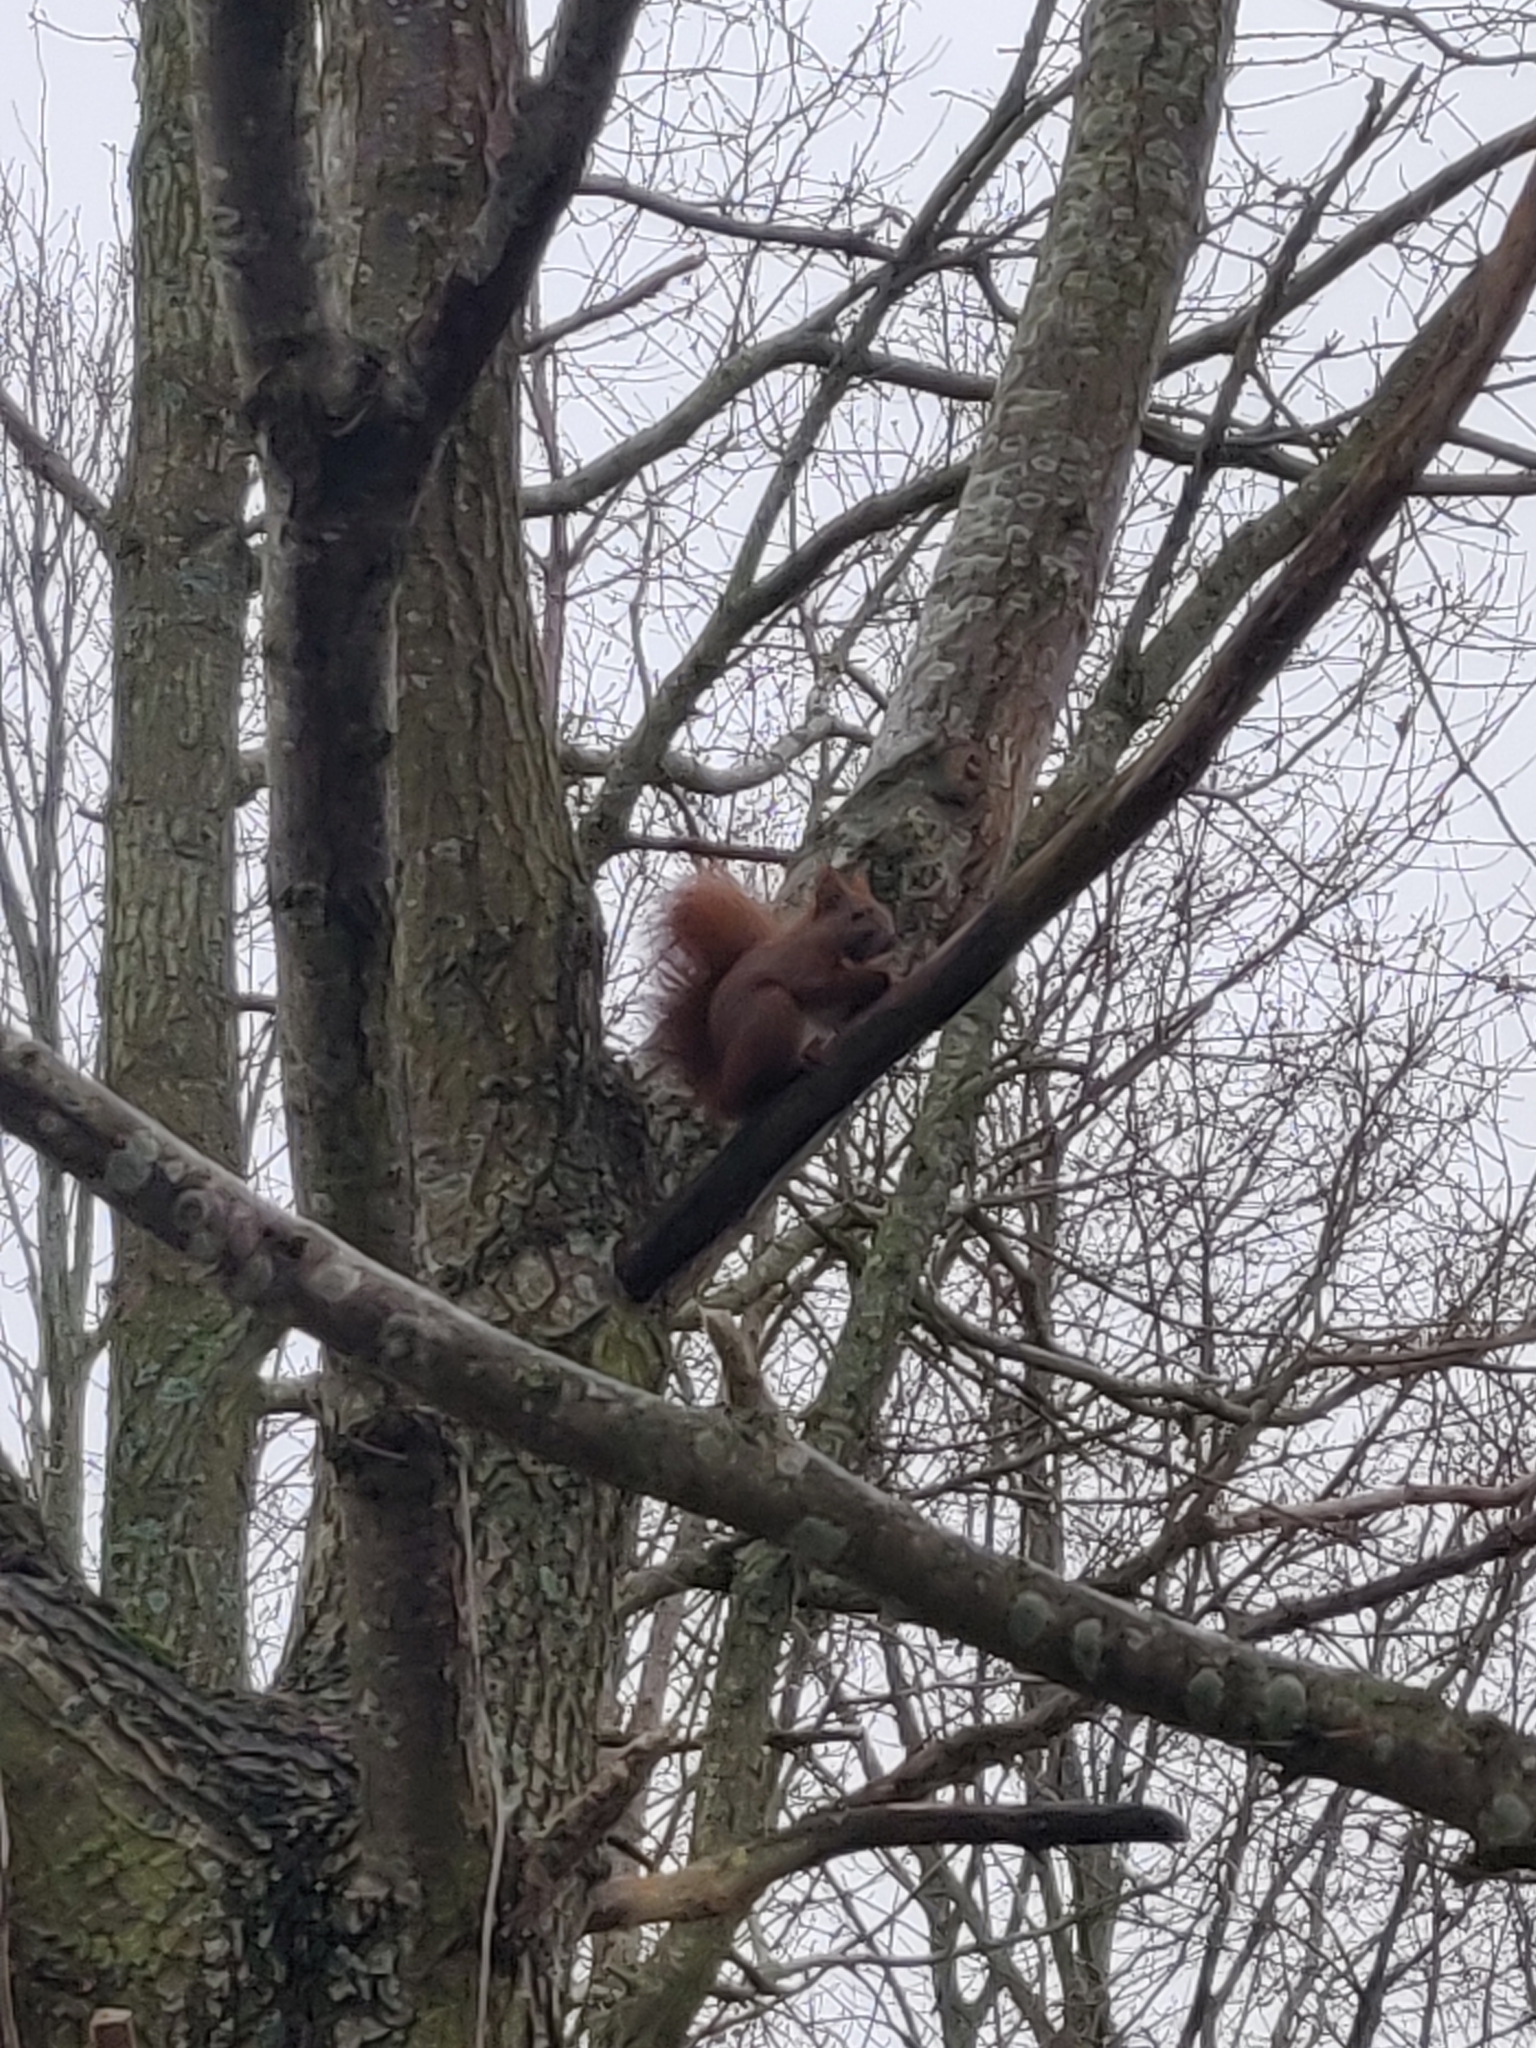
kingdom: Animalia
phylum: Chordata
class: Mammalia
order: Rodentia
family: Sciuridae
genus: Sciurus
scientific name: Sciurus vulgaris
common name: Eurasian red squirrel
